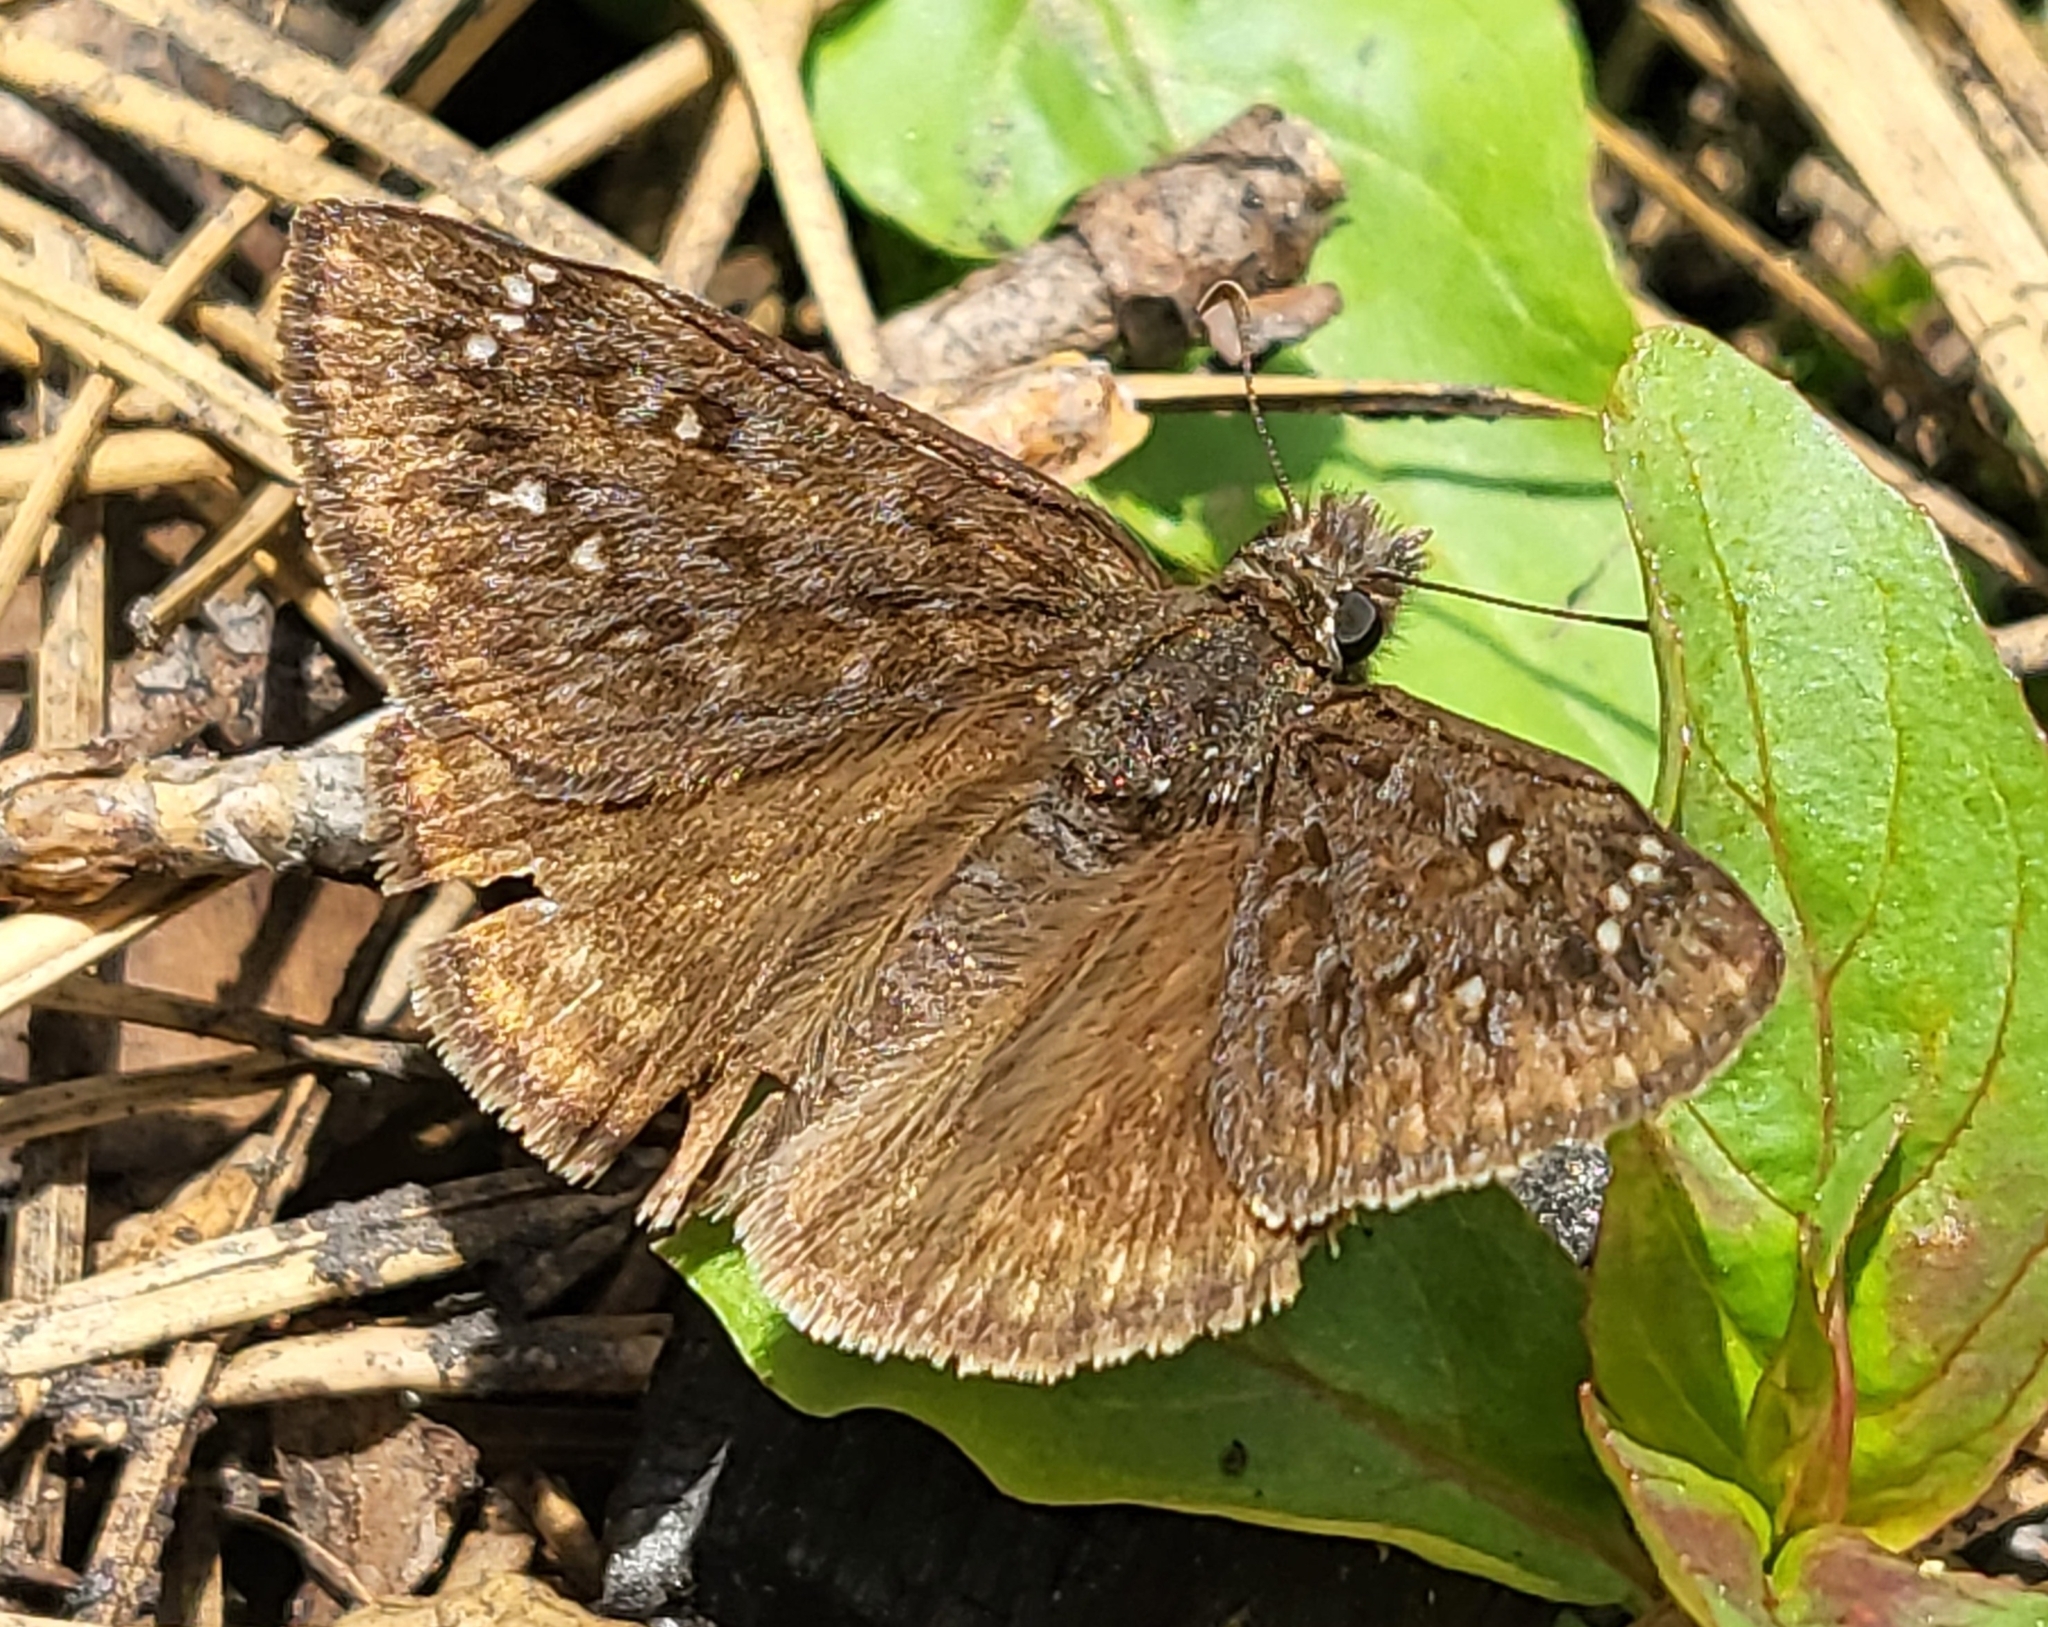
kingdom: Animalia
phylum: Arthropoda
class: Insecta
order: Lepidoptera
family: Hesperiidae
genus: Erynnis
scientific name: Erynnis propertius
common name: Propertius duskywing
